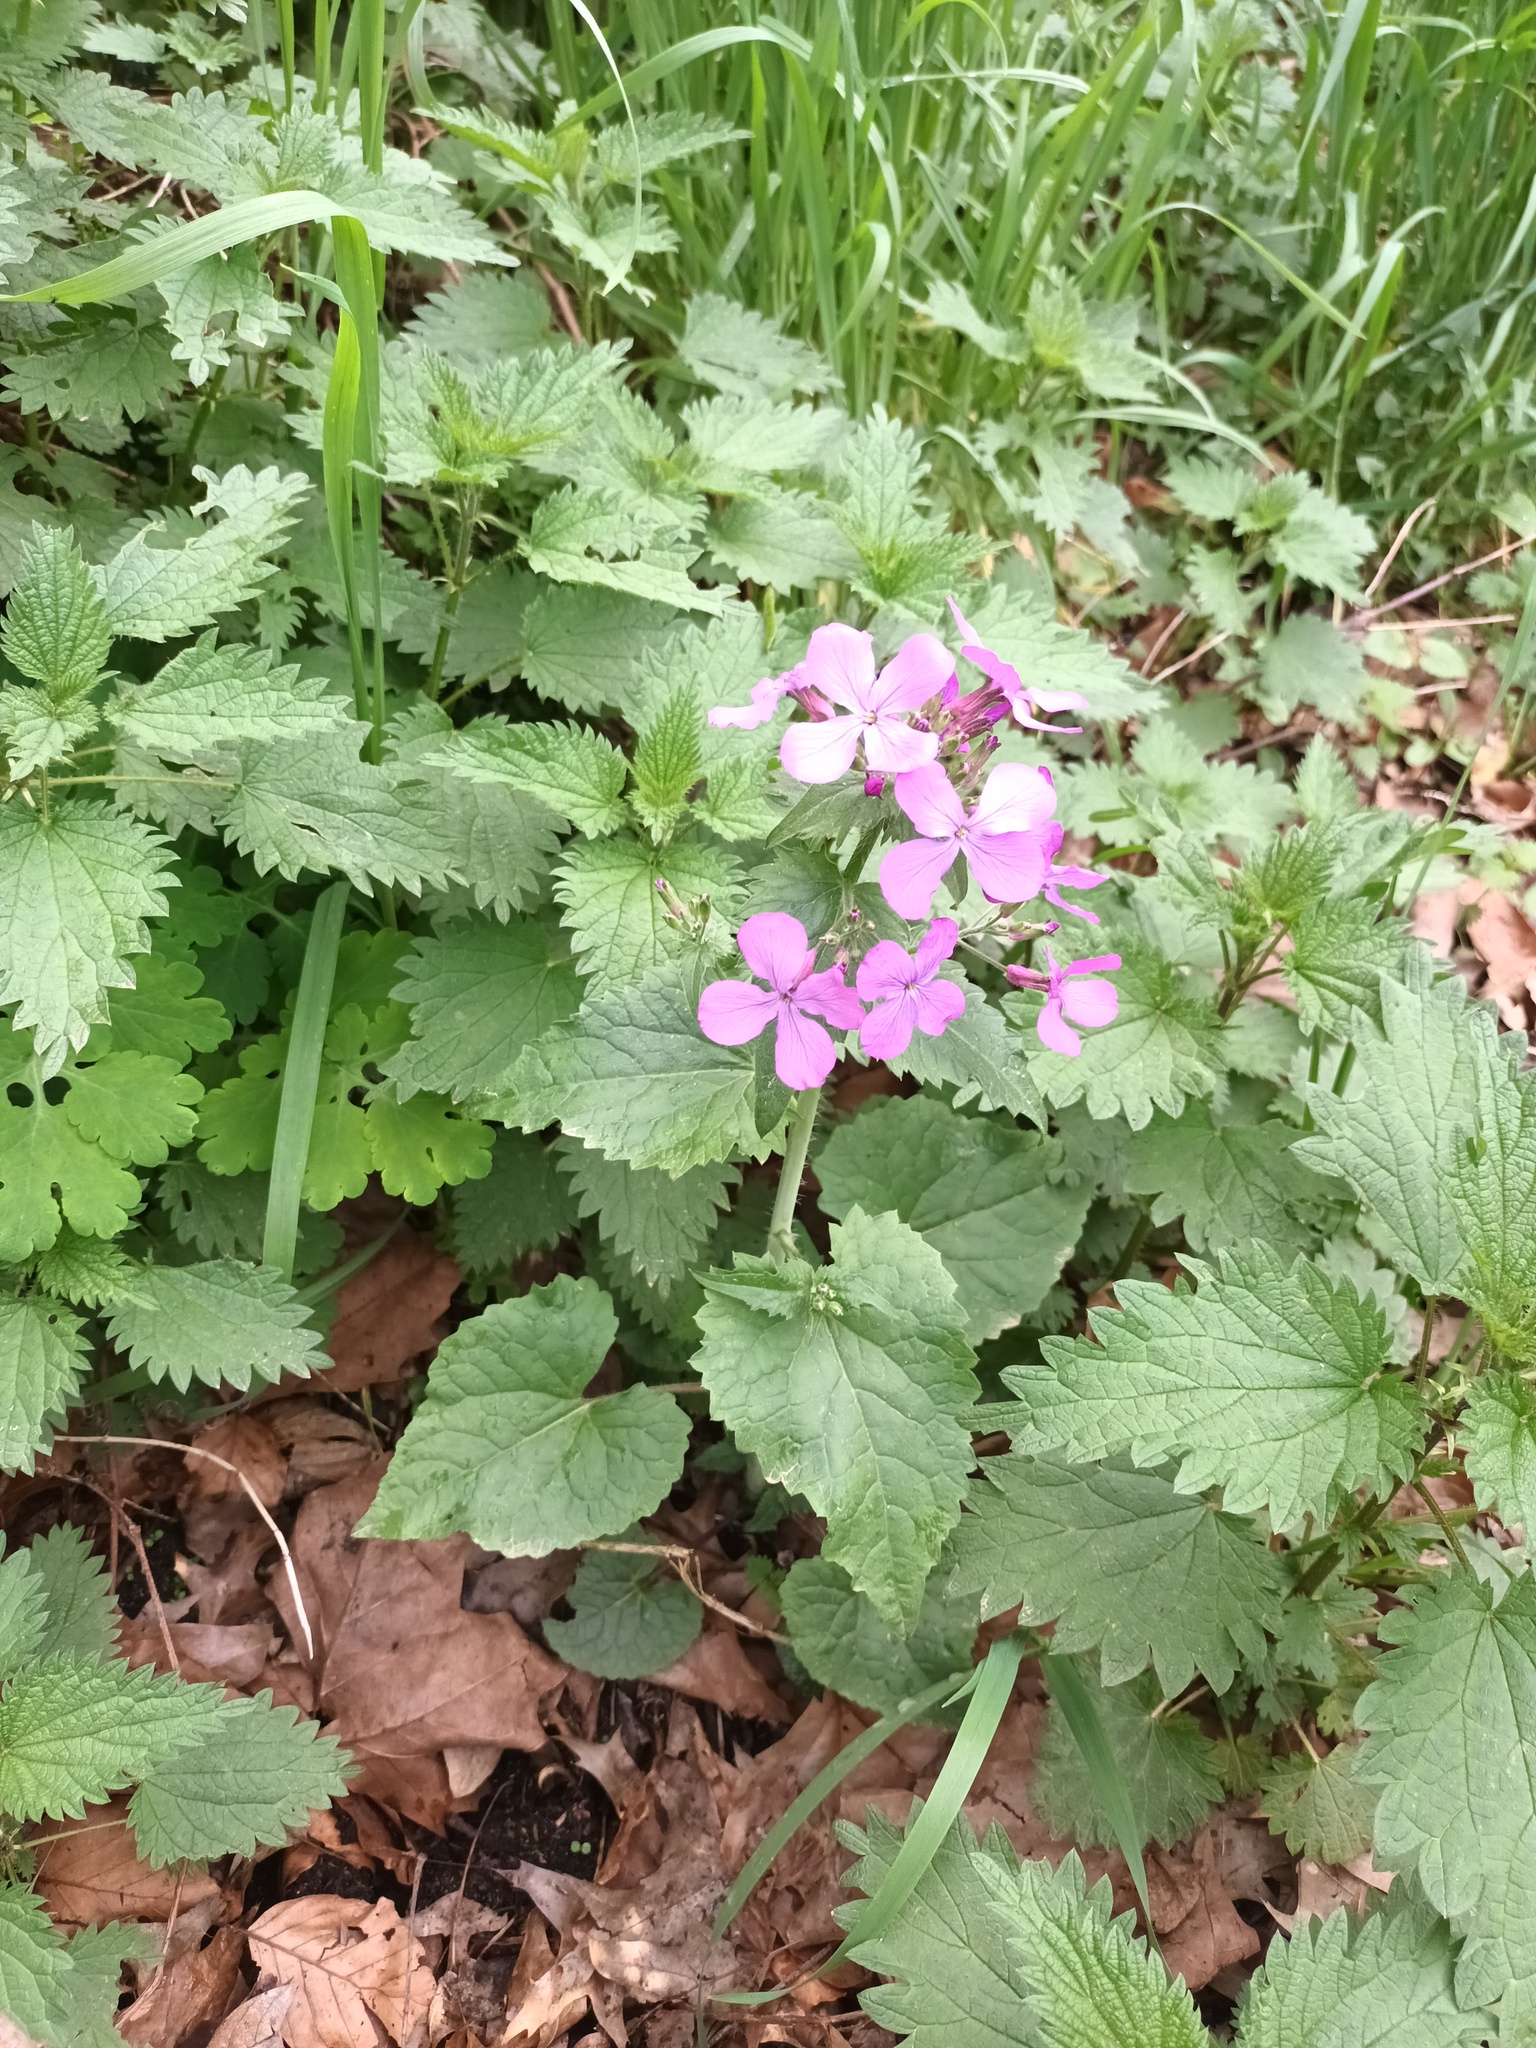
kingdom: Plantae
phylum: Tracheophyta
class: Magnoliopsida
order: Brassicales
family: Brassicaceae
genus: Lunaria
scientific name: Lunaria annua
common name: Honesty
